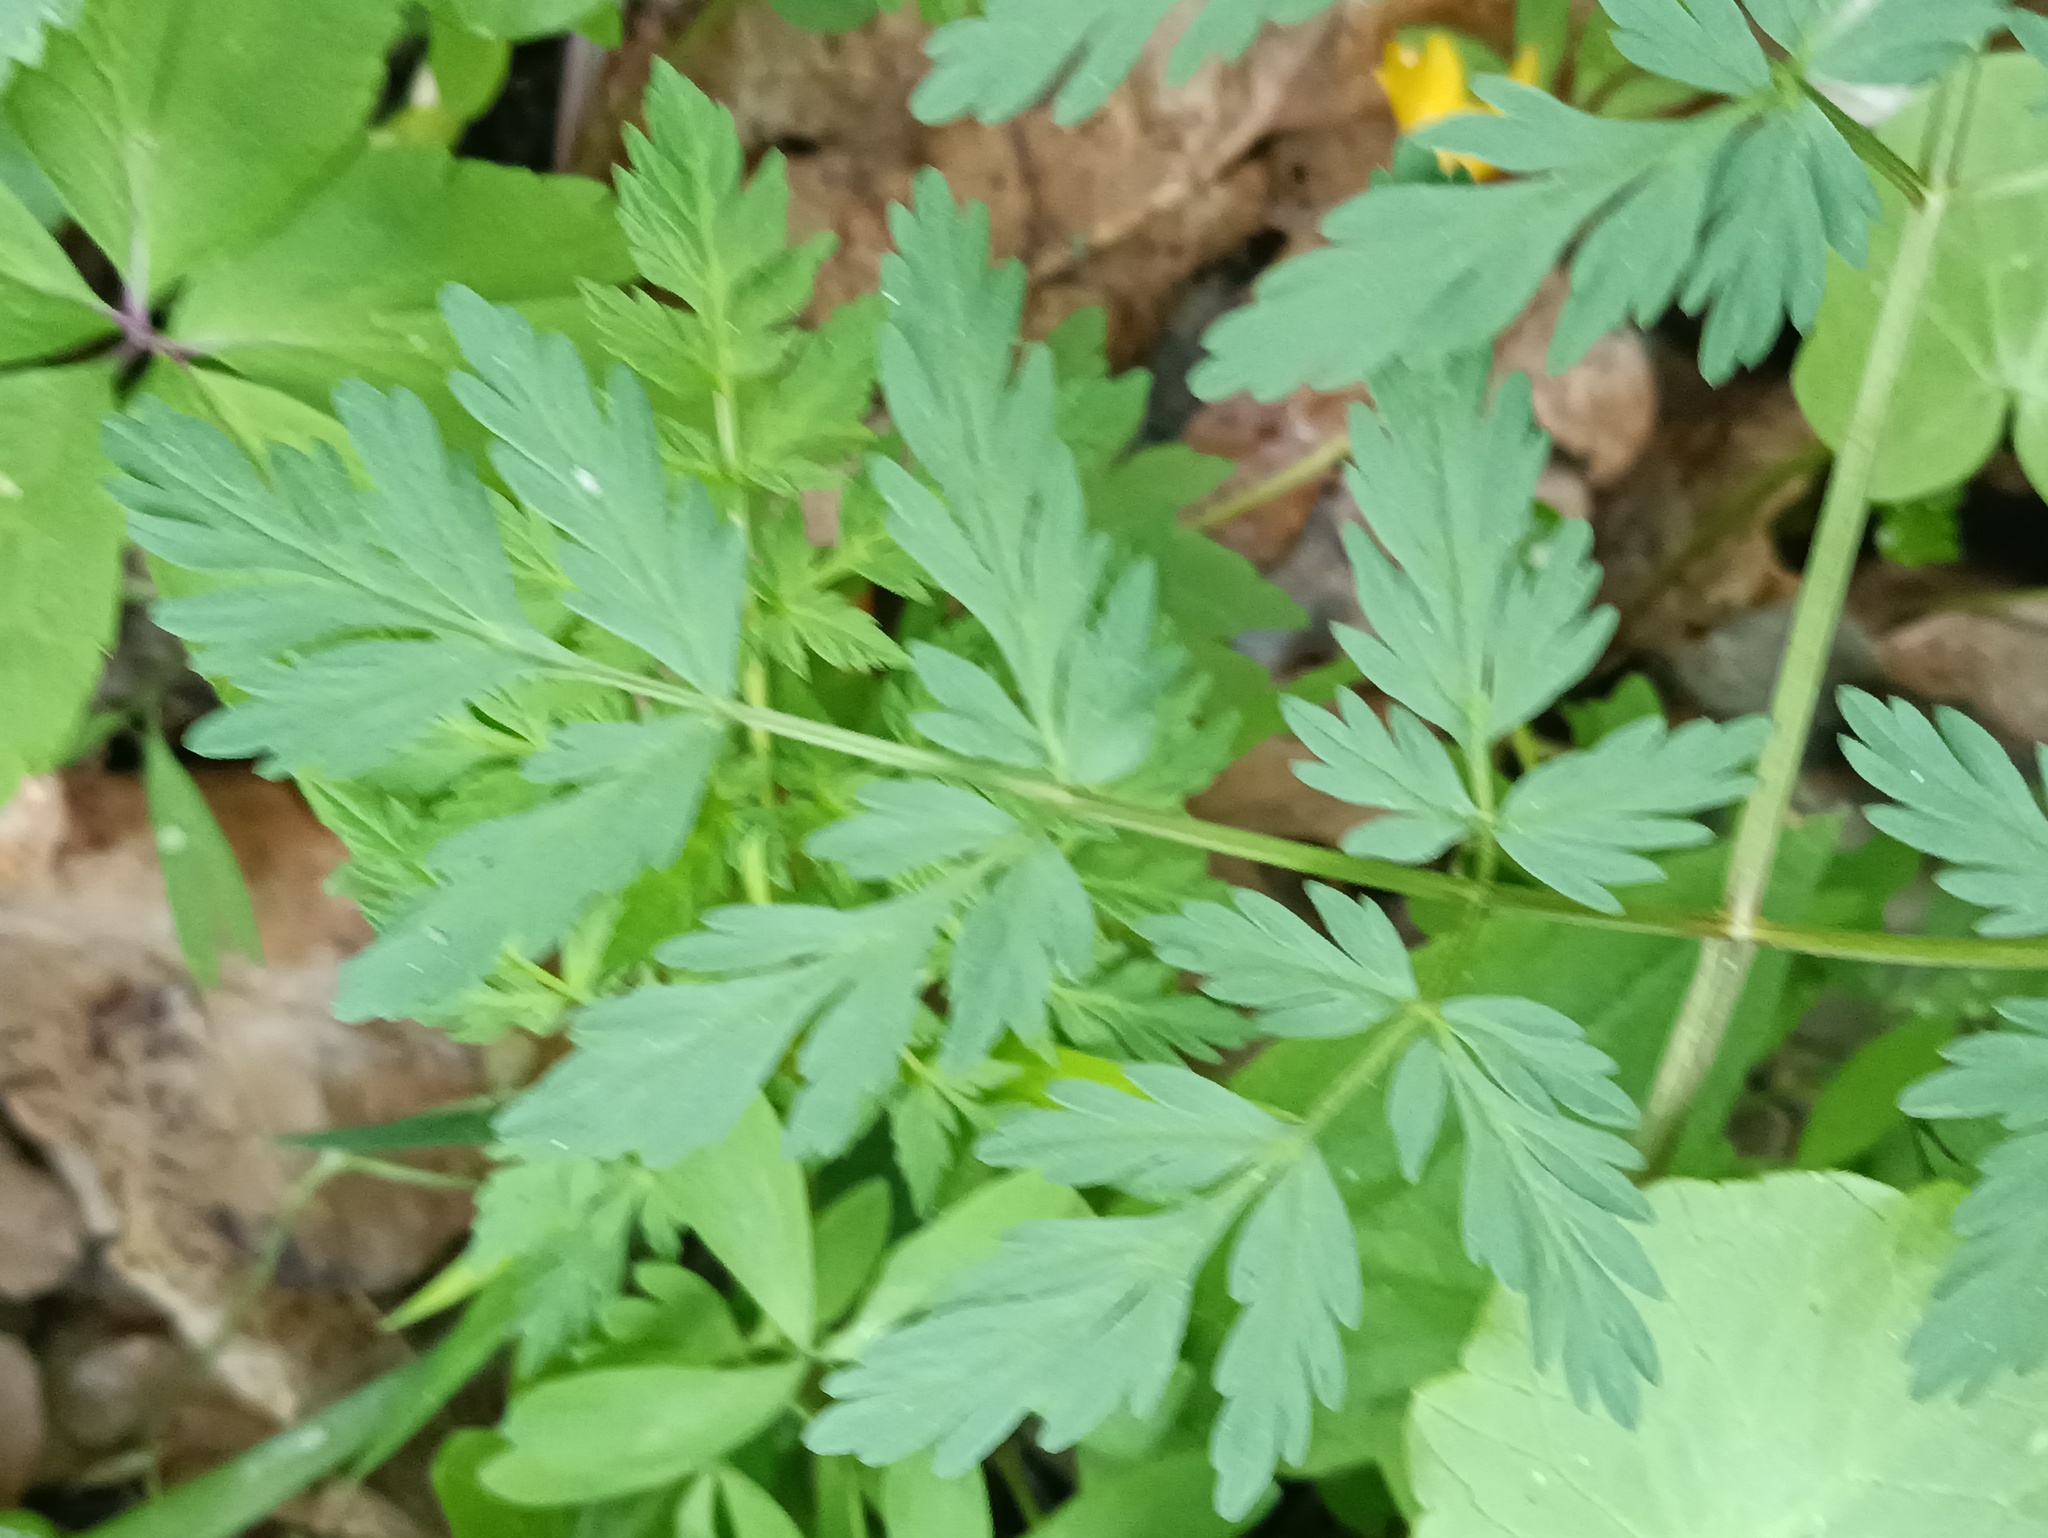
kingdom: Plantae
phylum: Tracheophyta
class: Magnoliopsida
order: Apiales
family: Apiaceae
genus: Anthriscus
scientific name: Anthriscus sylvestris
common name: Cow parsley
